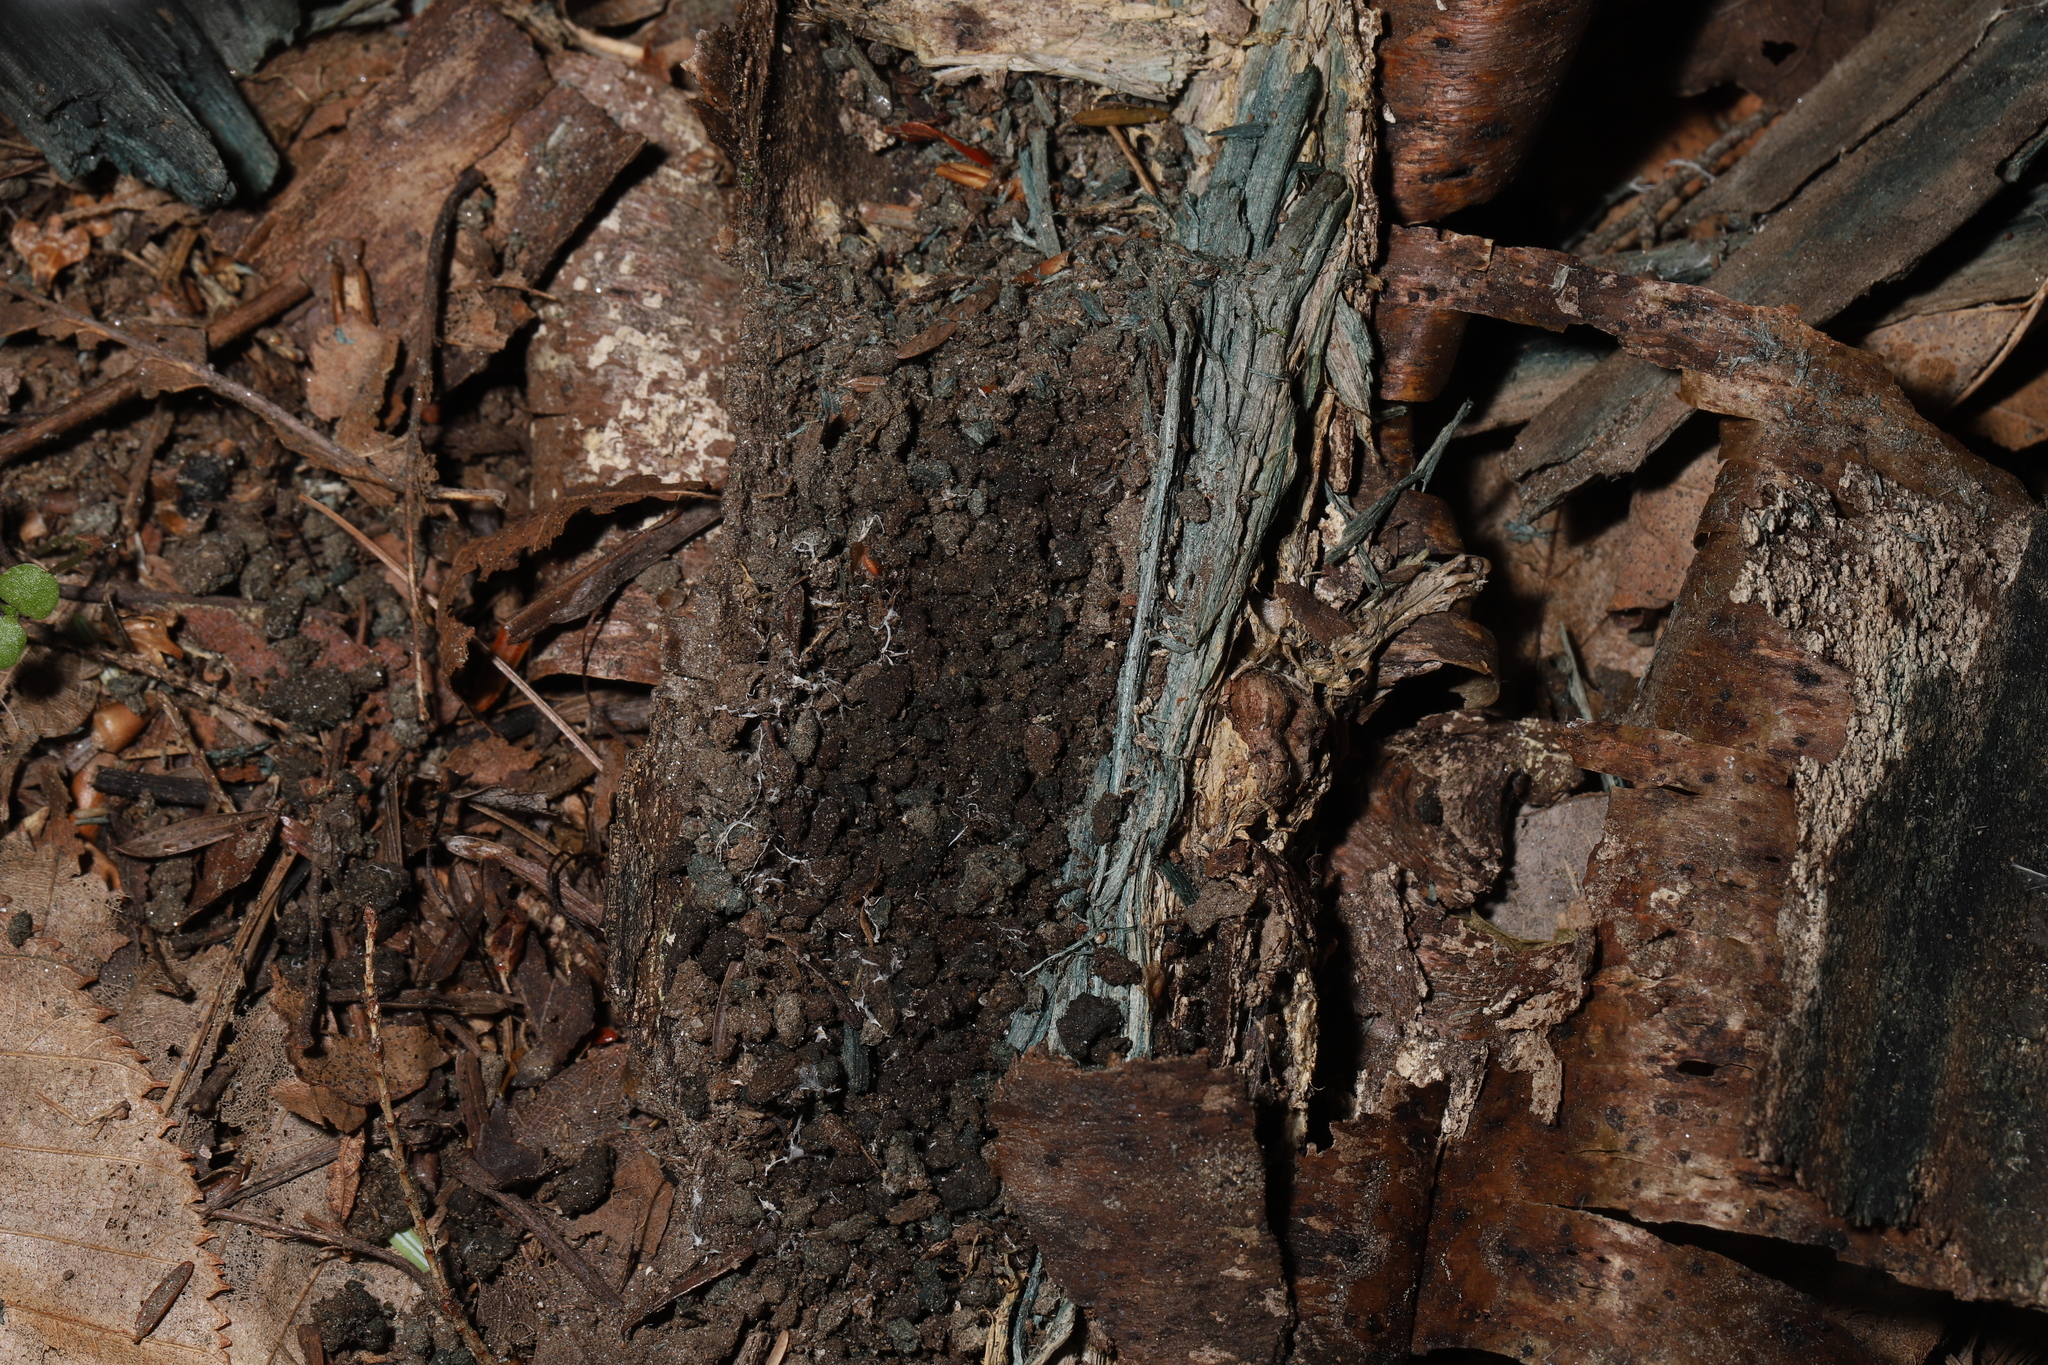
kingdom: Fungi
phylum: Ascomycota
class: Leotiomycetes
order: Helotiales
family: Chlorociboriaceae
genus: Chlorociboria
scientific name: Chlorociboria
